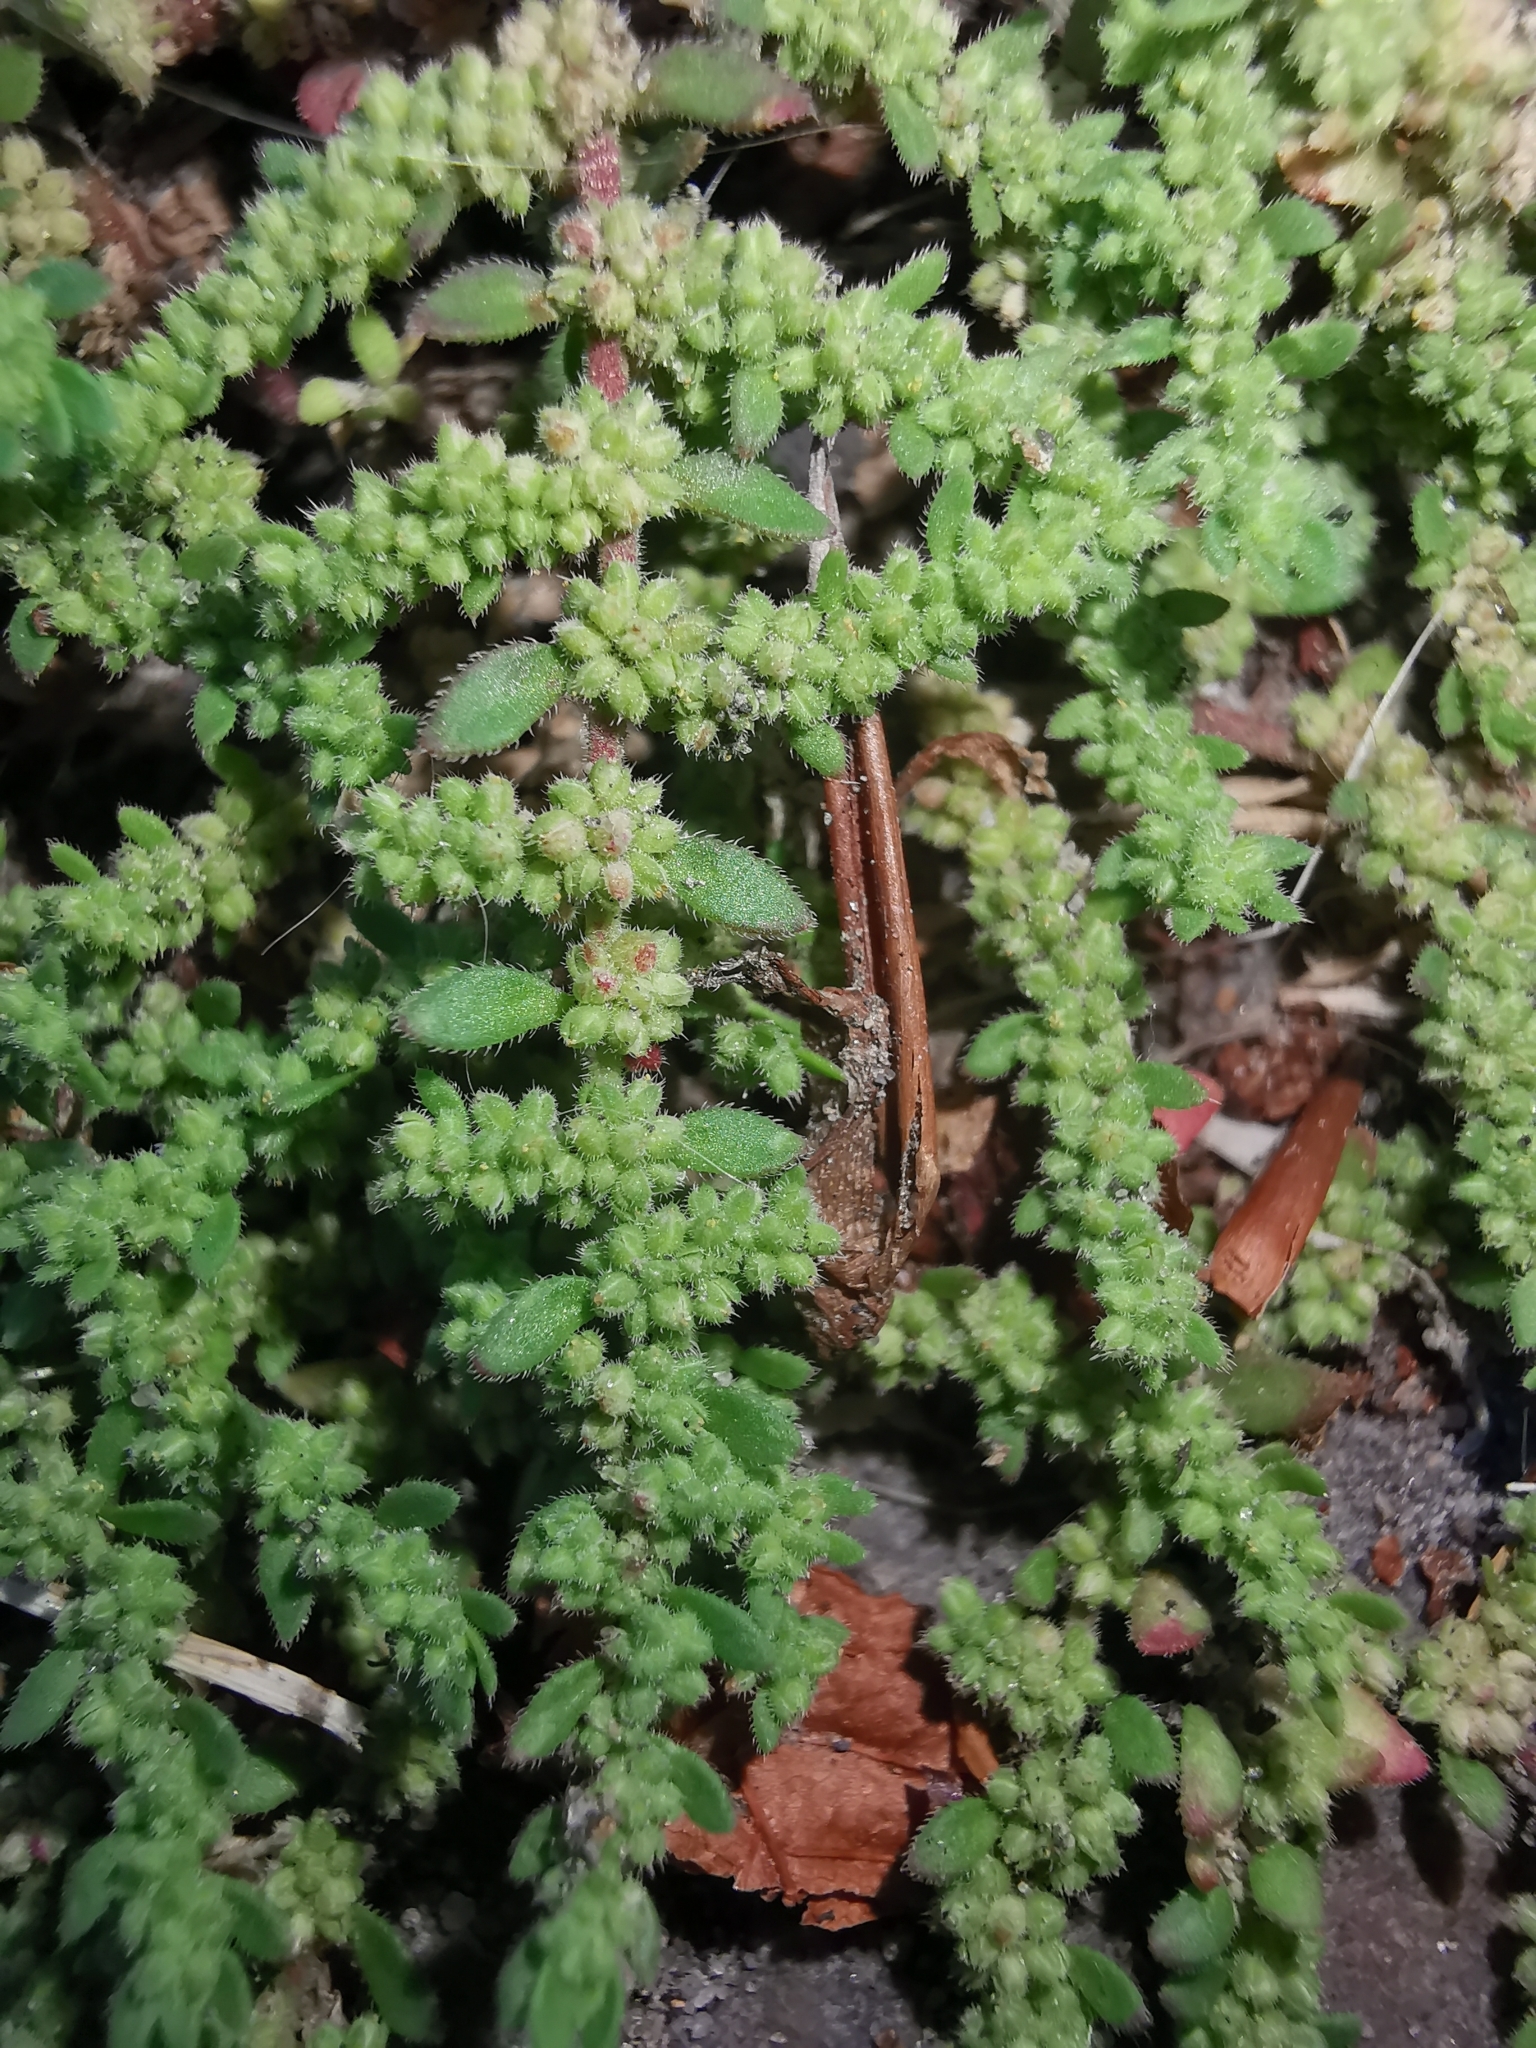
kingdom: Plantae
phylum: Tracheophyta
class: Magnoliopsida
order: Caryophyllales
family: Caryophyllaceae
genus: Herniaria
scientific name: Herniaria hirsuta
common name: Hairy rupturewort
